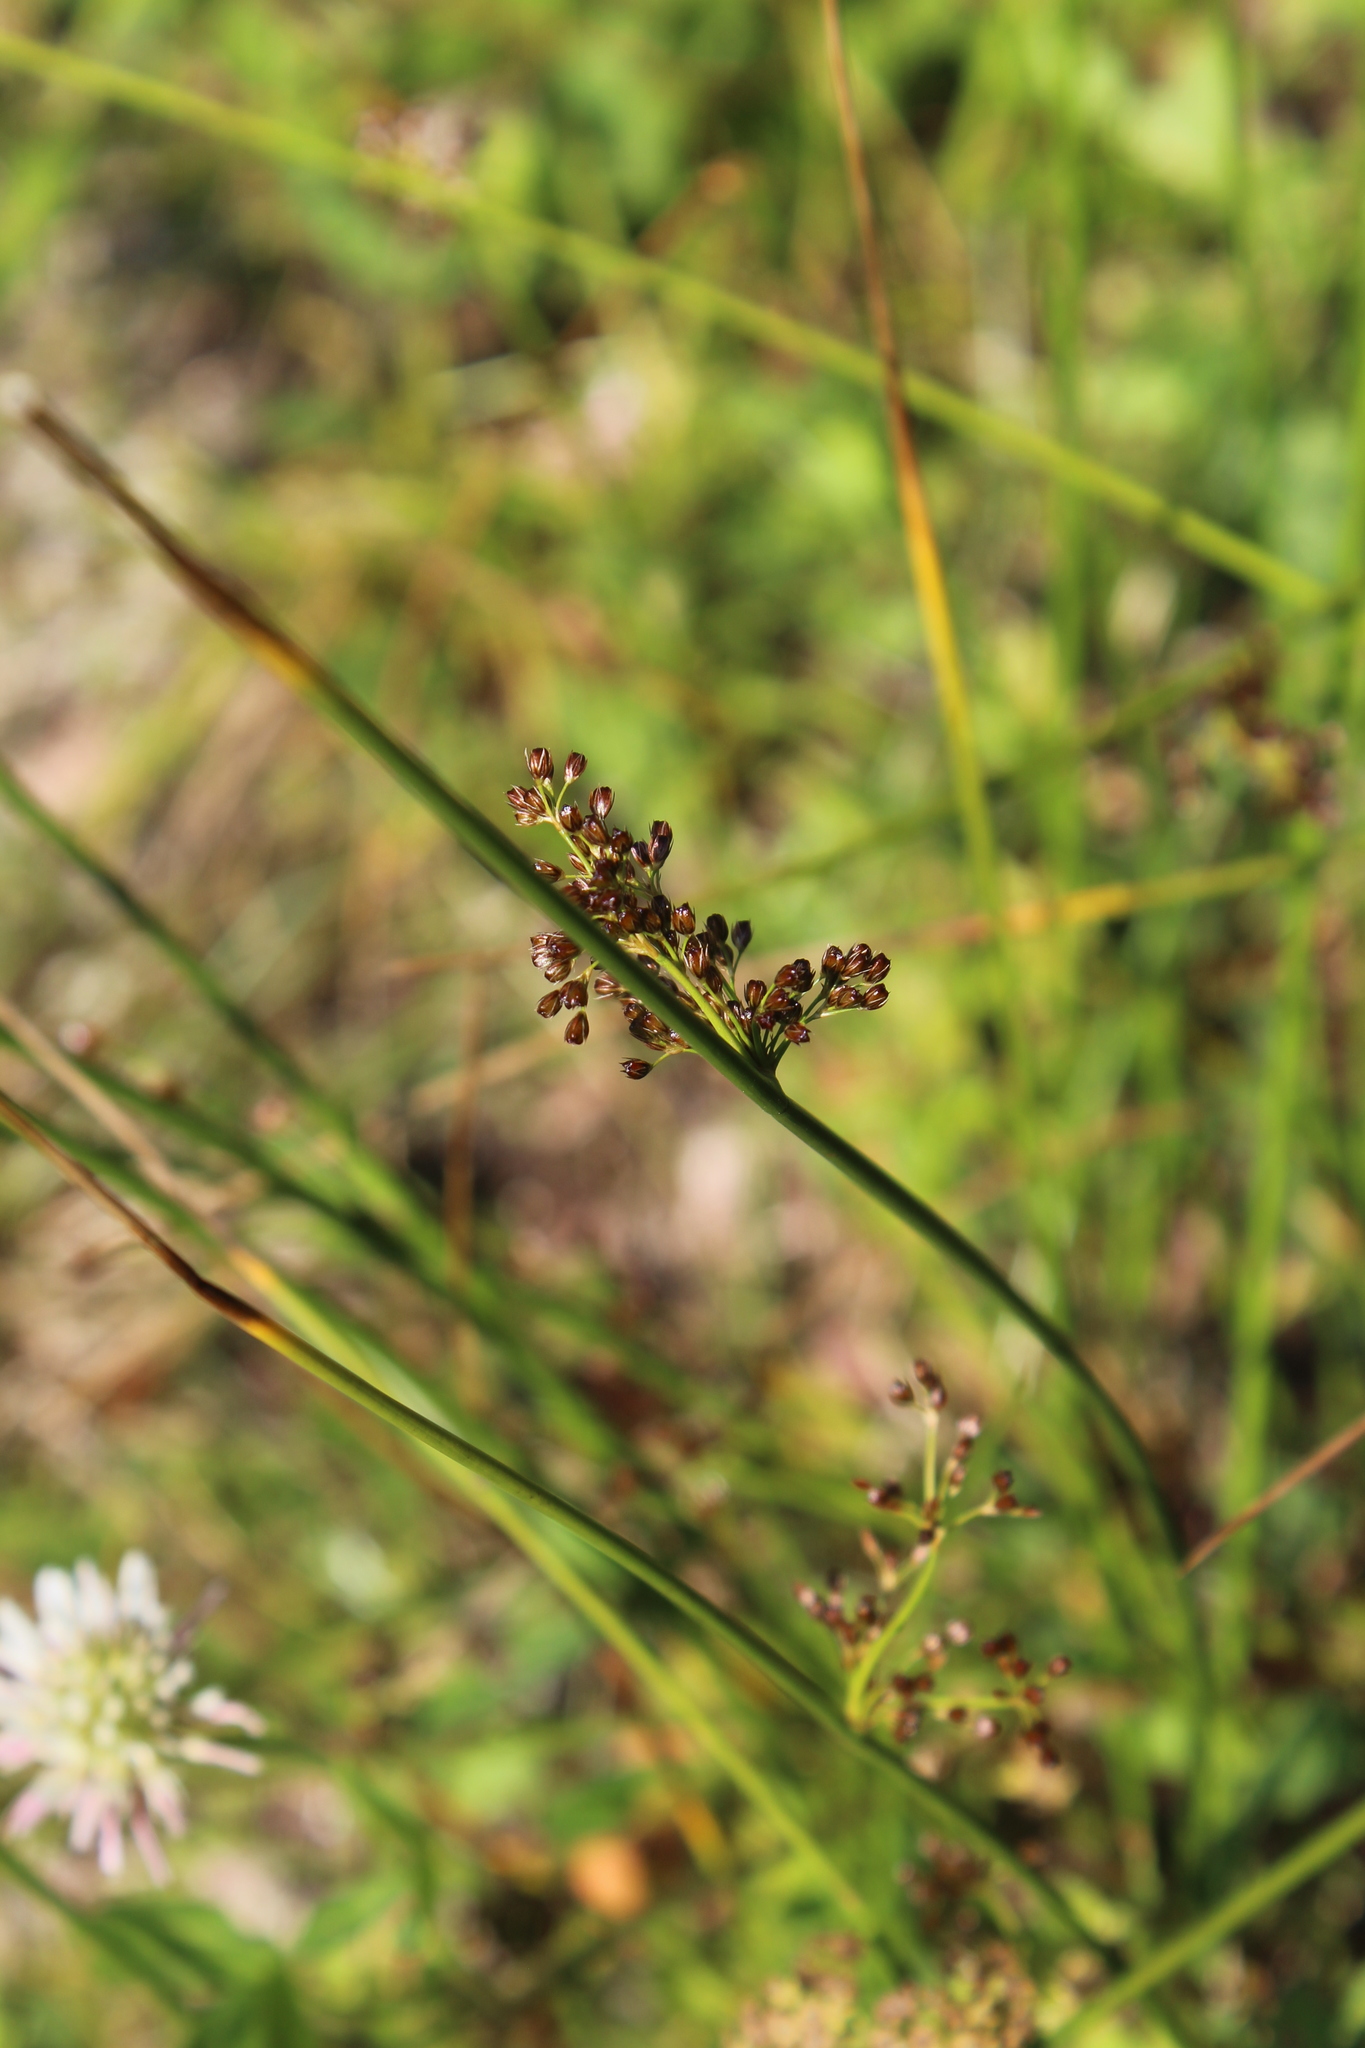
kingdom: Plantae
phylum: Tracheophyta
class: Liliopsida
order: Poales
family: Juncaceae
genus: Juncus
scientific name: Juncus effusus
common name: Soft rush
